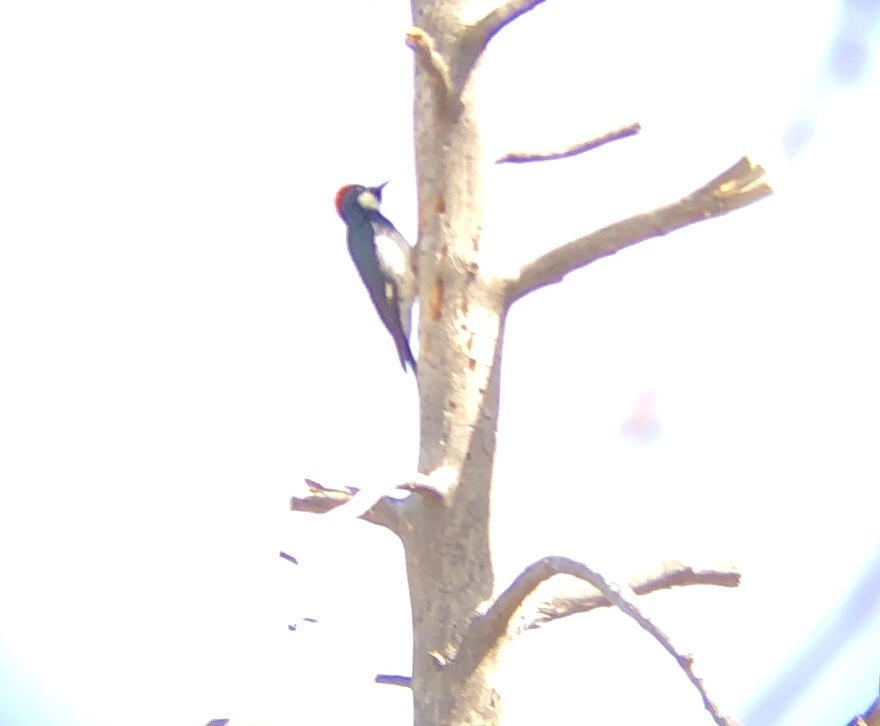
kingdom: Animalia
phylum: Chordata
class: Aves
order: Piciformes
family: Picidae
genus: Melanerpes
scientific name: Melanerpes formicivorus
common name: Acorn woodpecker
